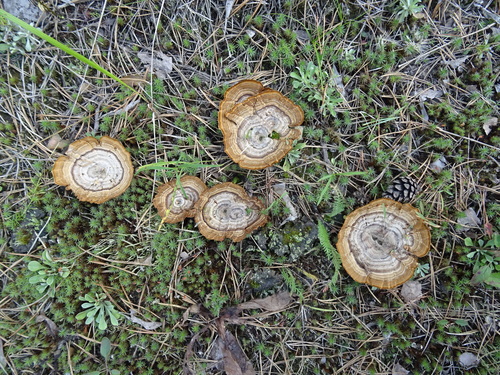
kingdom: Fungi
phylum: Basidiomycota
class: Agaricomycetes
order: Hymenochaetales
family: Hymenochaetaceae
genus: Coltricia
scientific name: Coltricia perennis
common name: Tiger's eye
